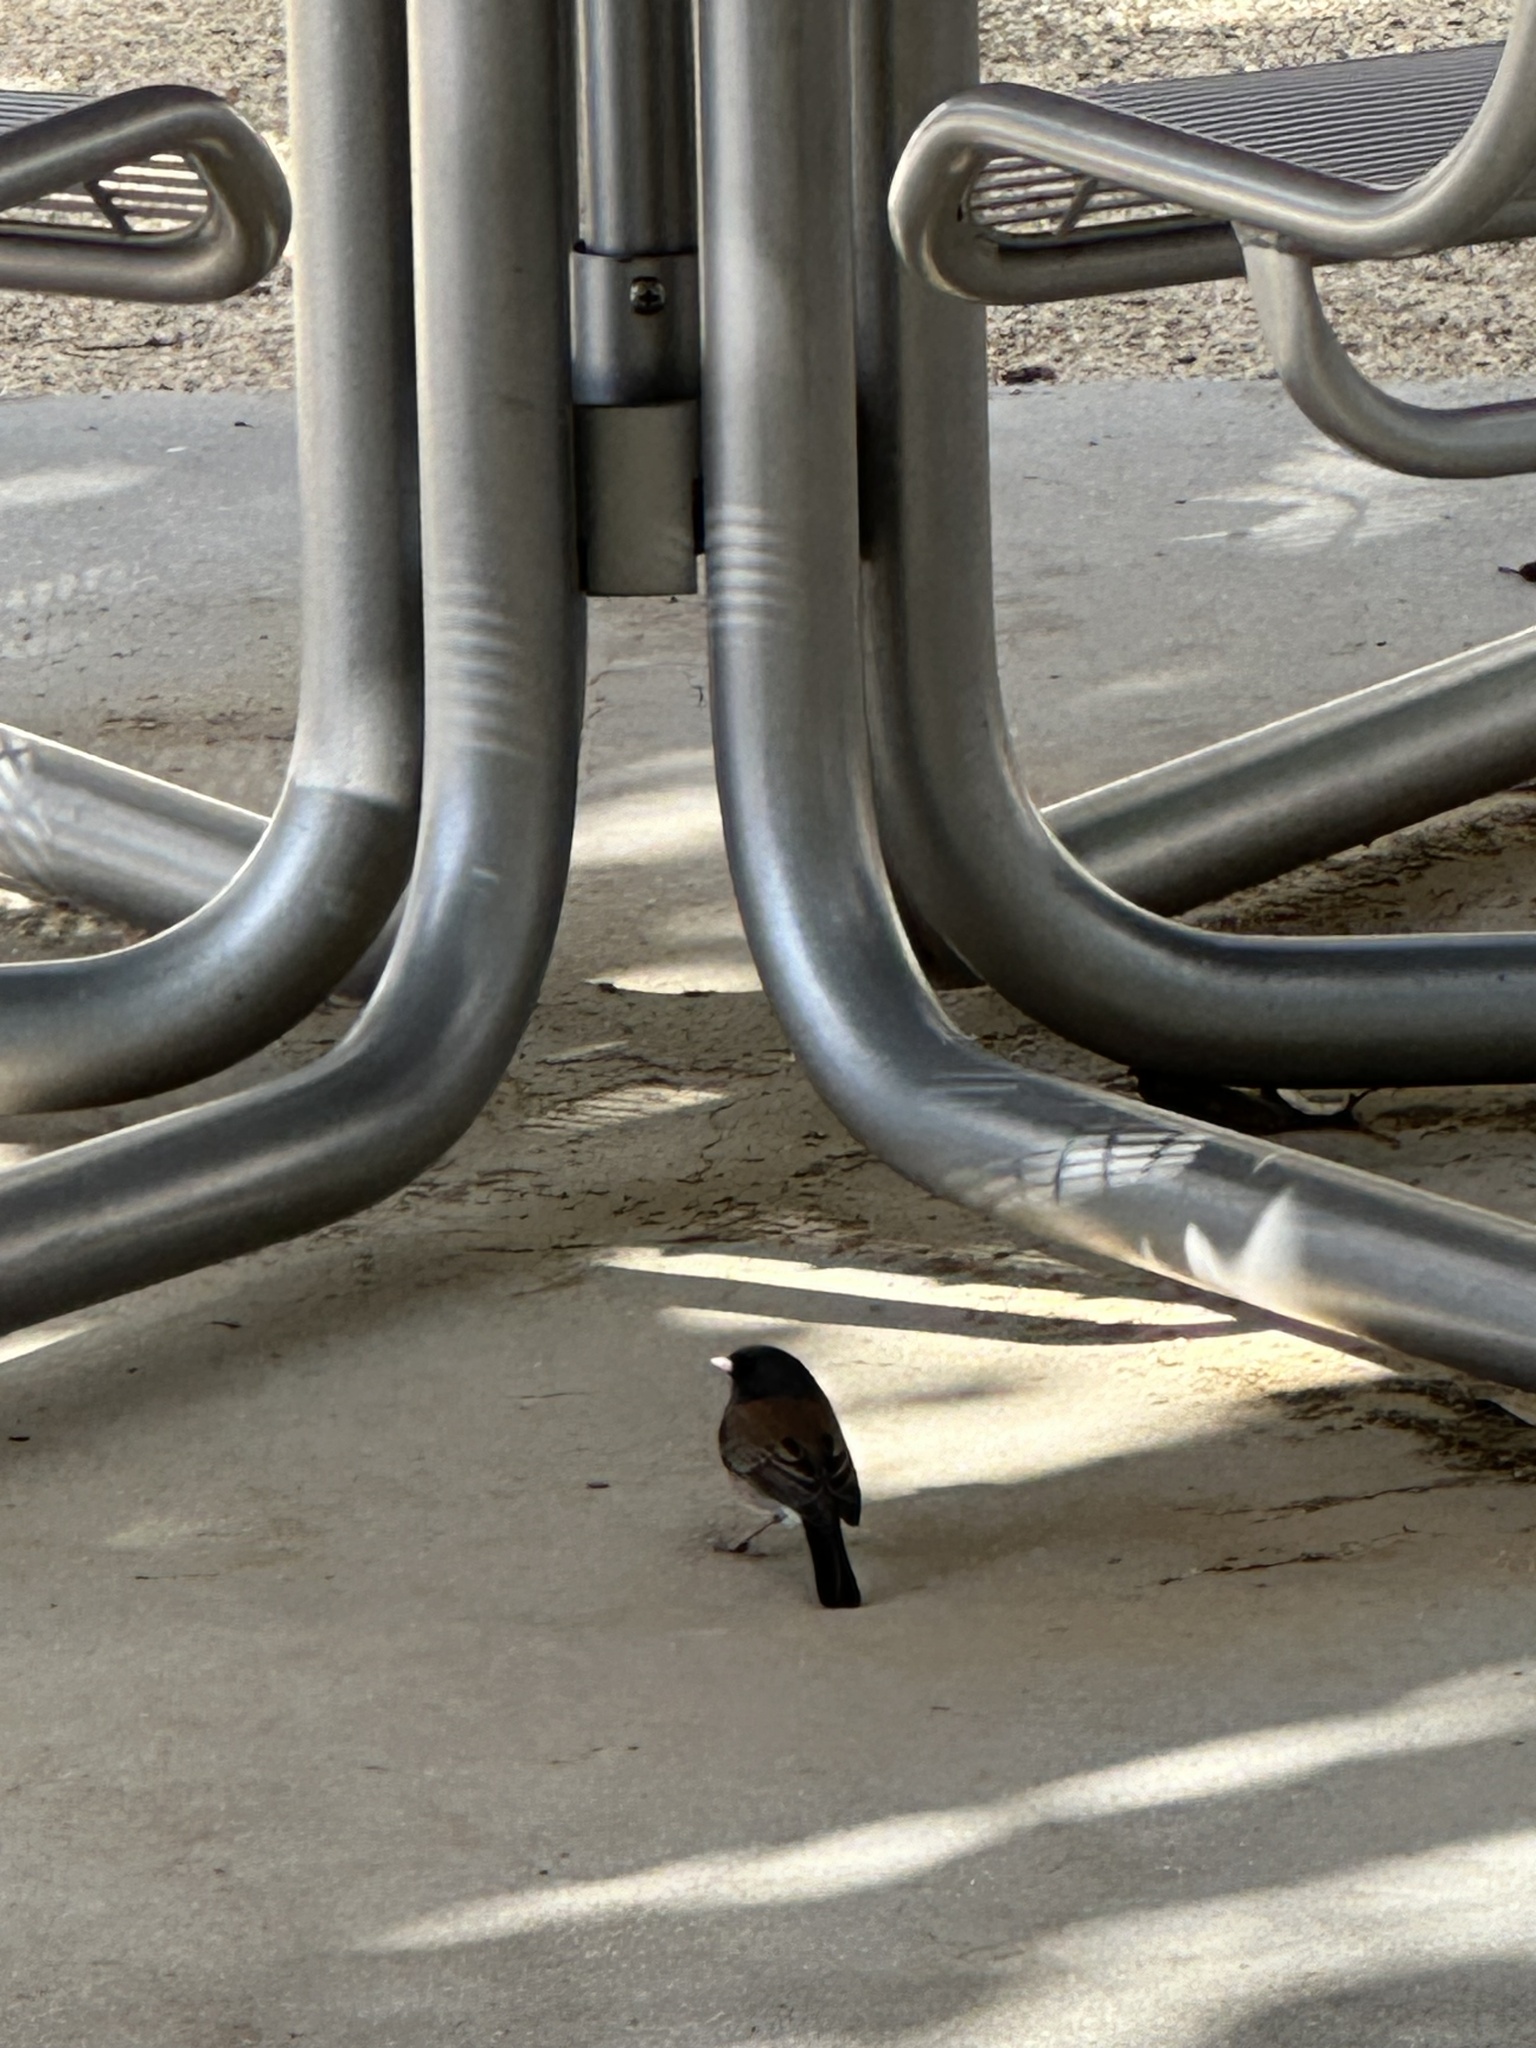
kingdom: Animalia
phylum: Chordata
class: Aves
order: Passeriformes
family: Passerellidae
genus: Junco
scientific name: Junco hyemalis
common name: Dark-eyed junco
